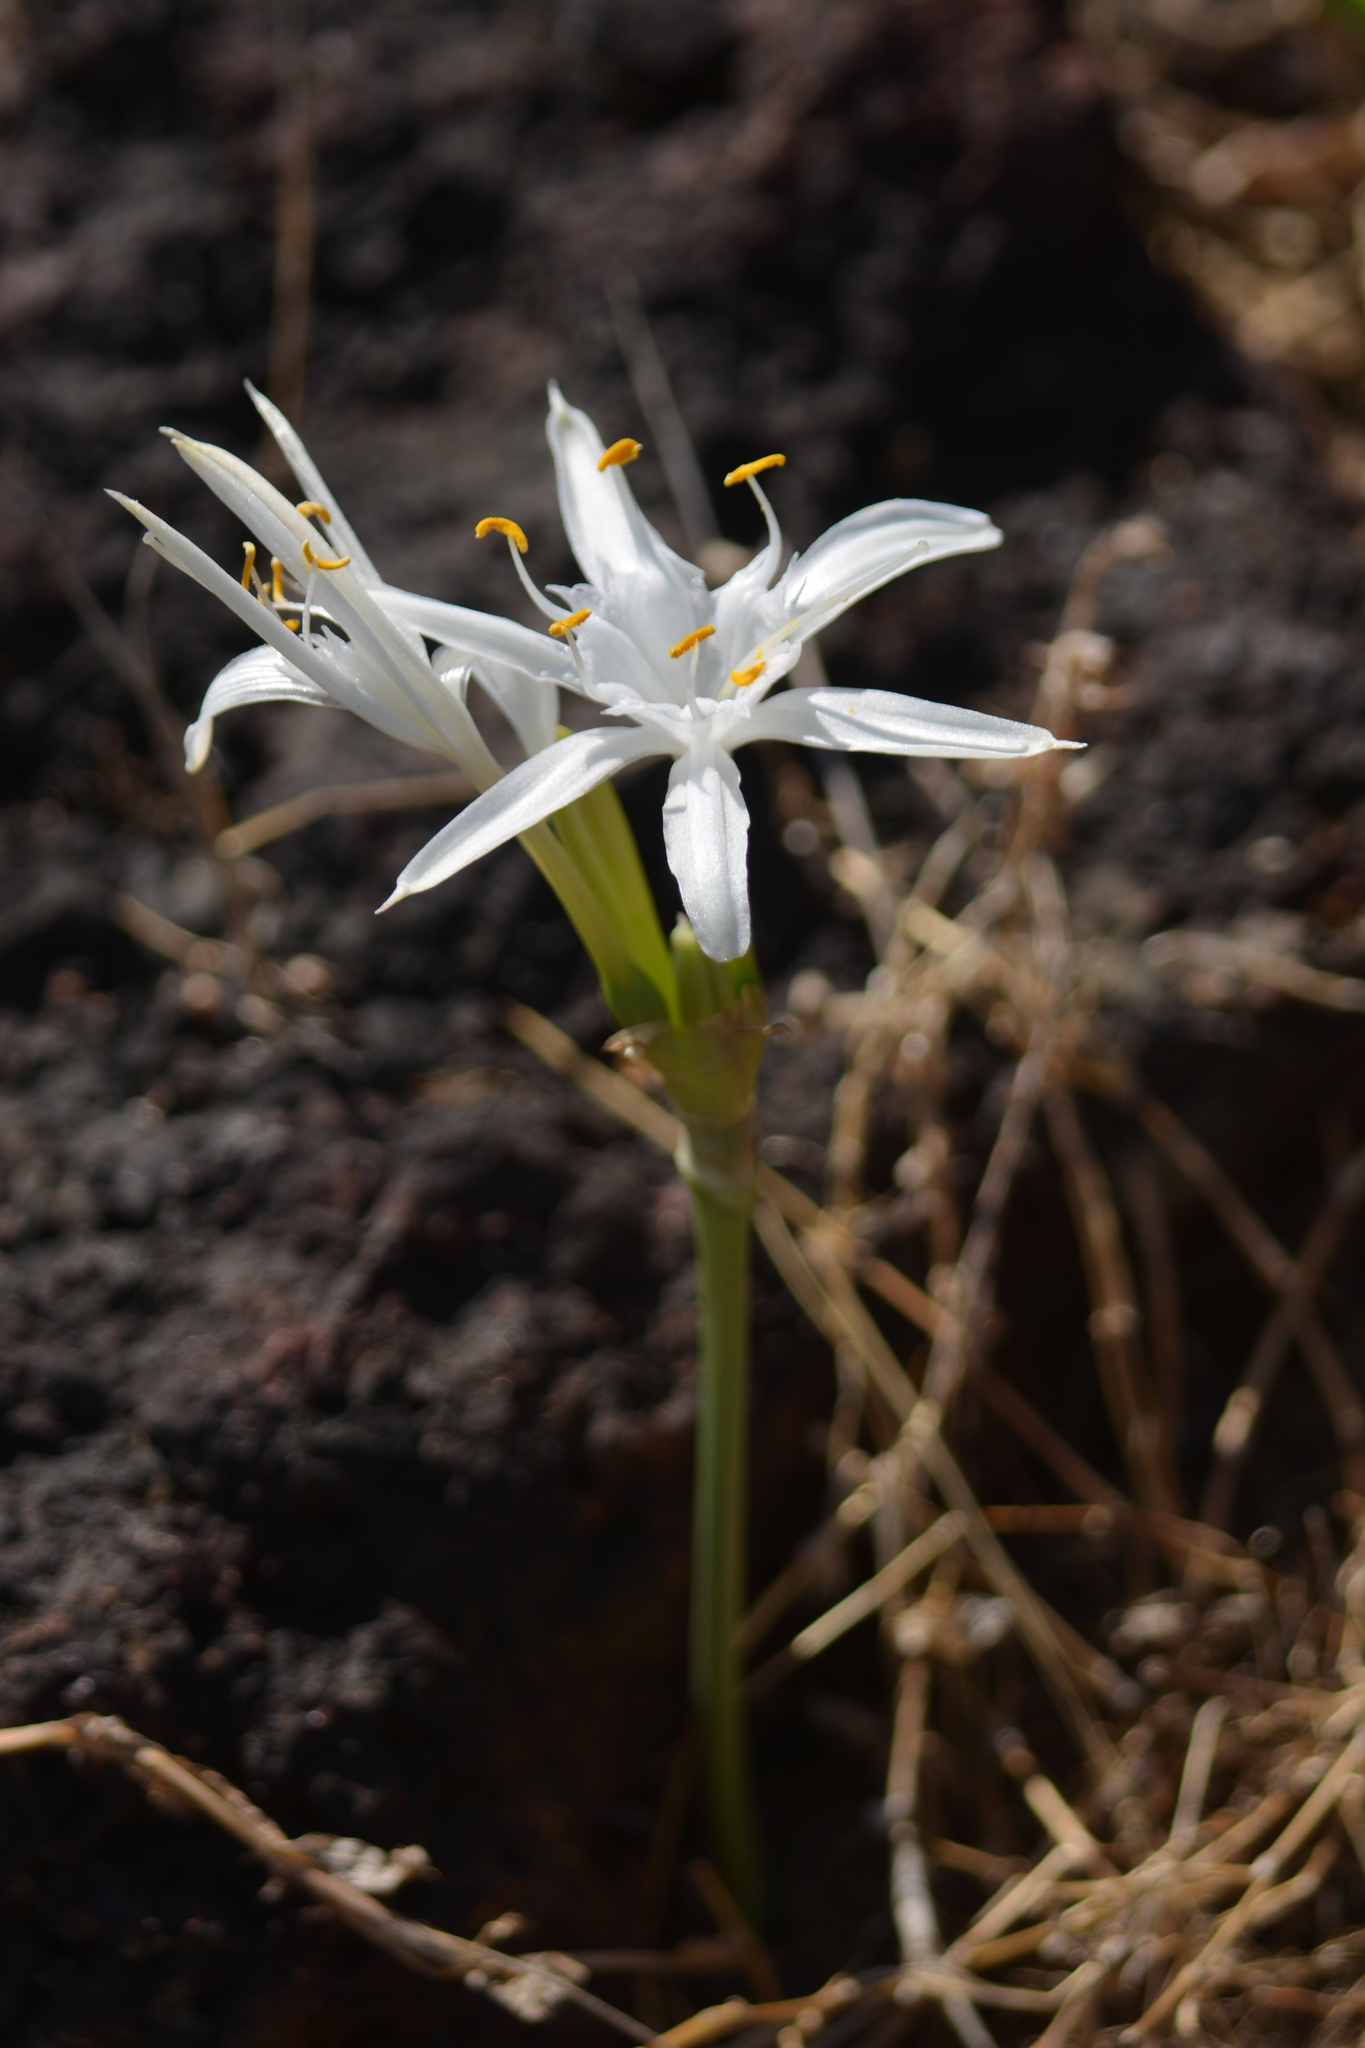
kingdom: Plantae
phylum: Tracheophyta
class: Liliopsida
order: Asparagales
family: Amaryllidaceae
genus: Pancratium
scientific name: Pancratium triflorum
